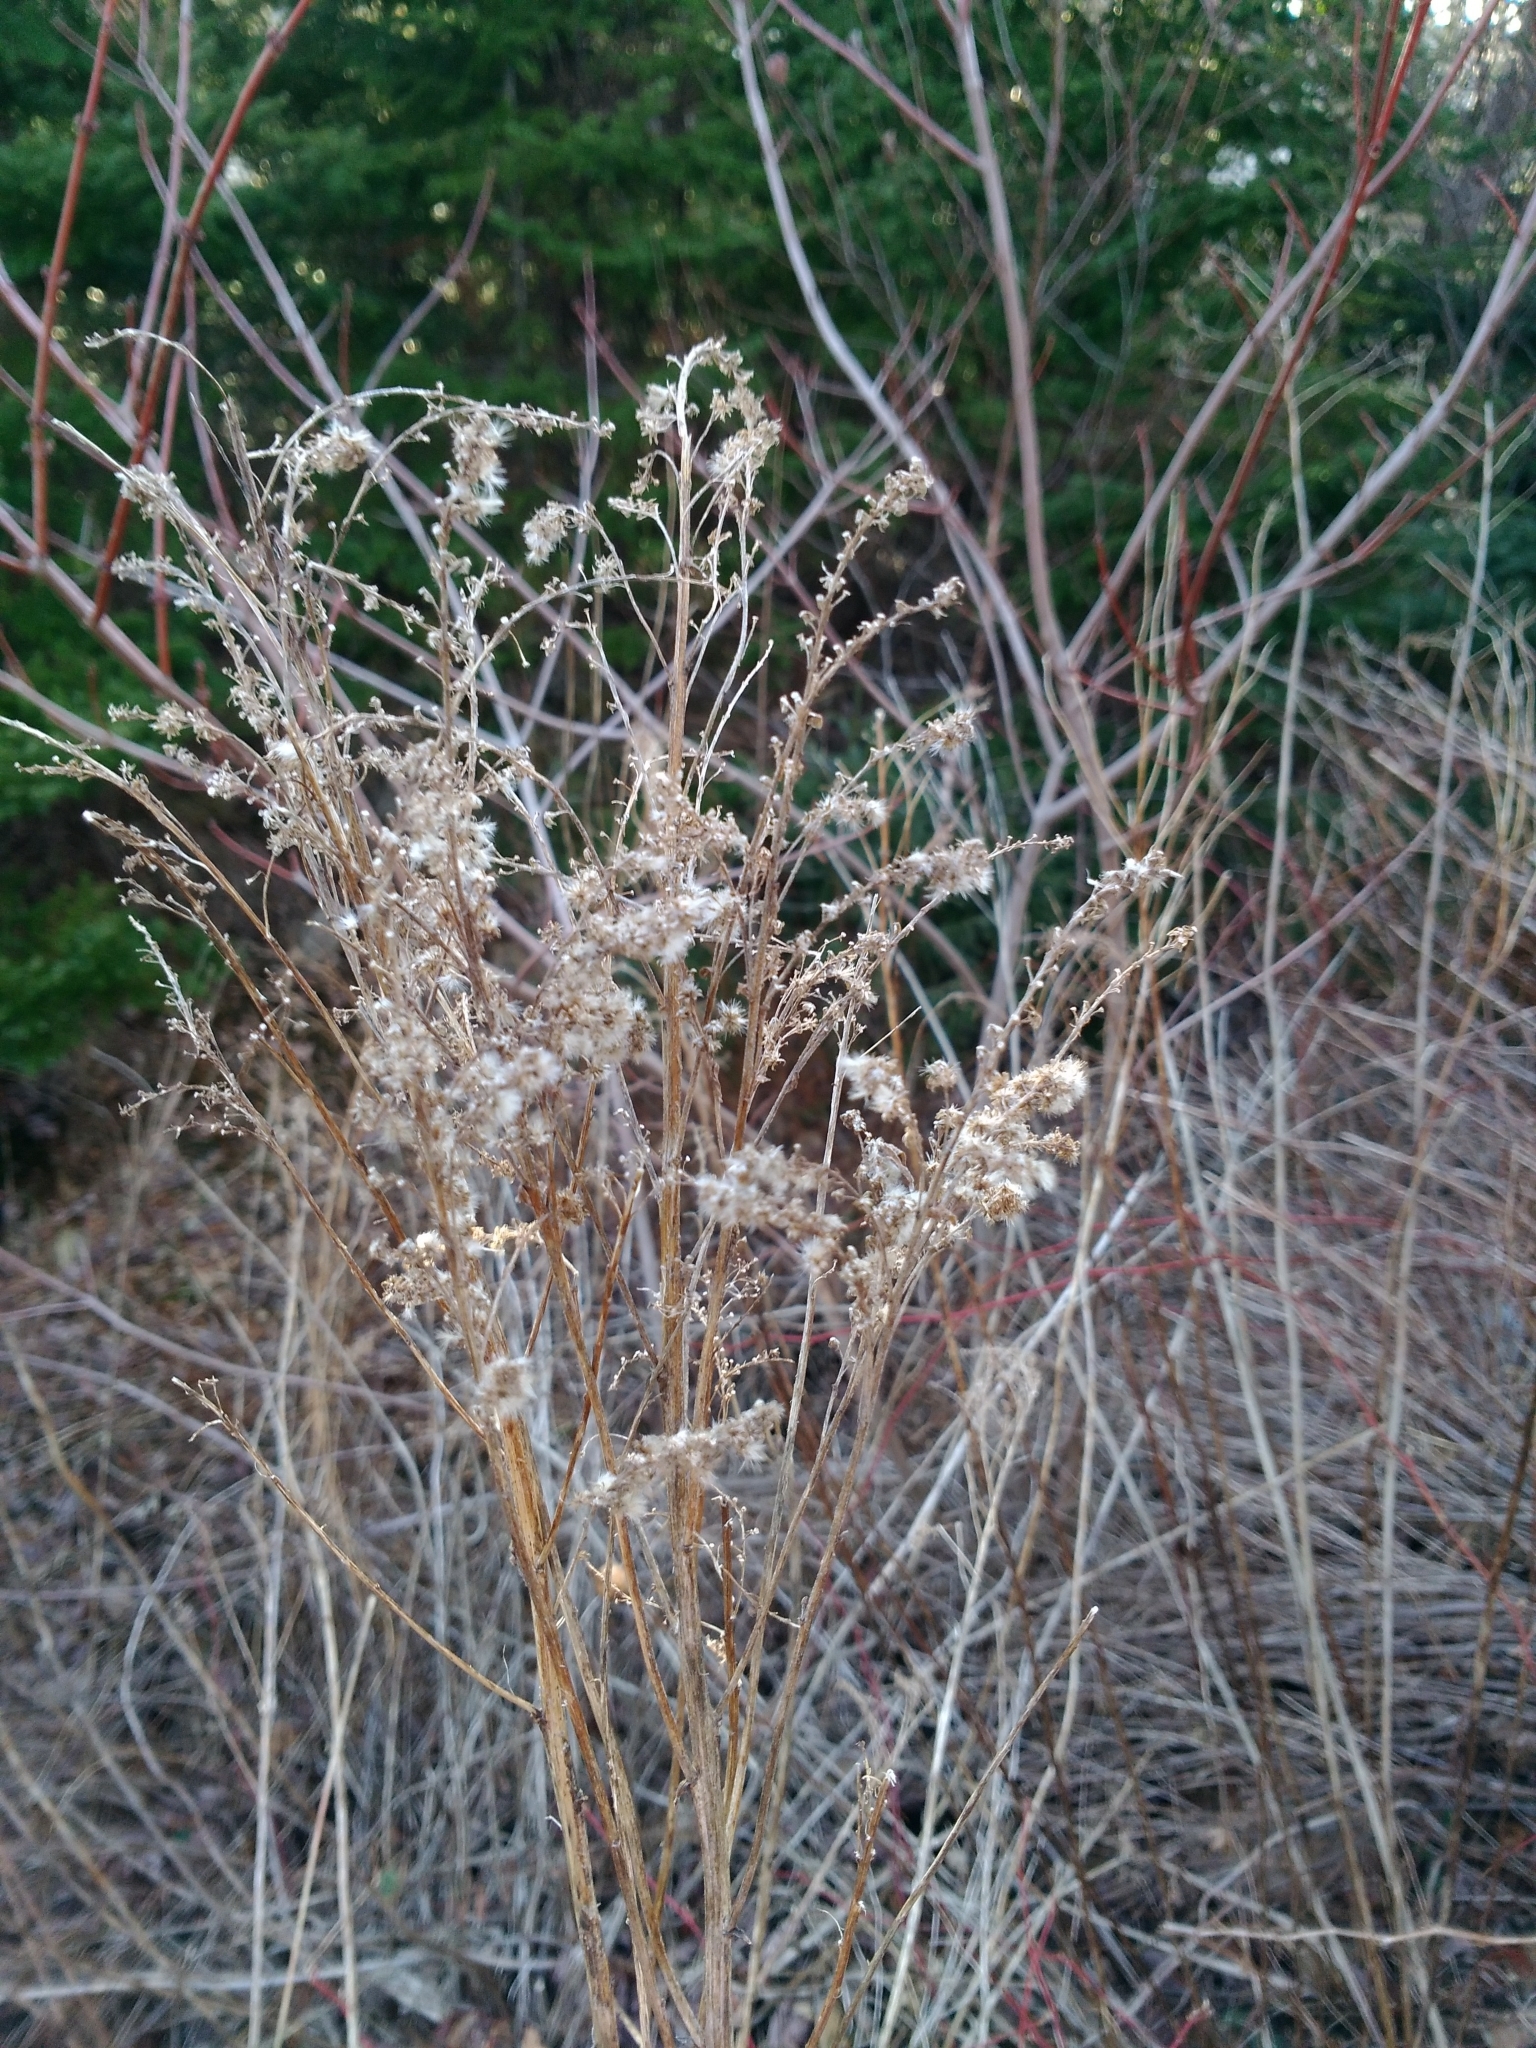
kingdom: Animalia
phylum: Arthropoda
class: Insecta
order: Diptera
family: Tephritidae
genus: Eurosta
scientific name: Eurosta solidaginis
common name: Goldenrod gall fly
